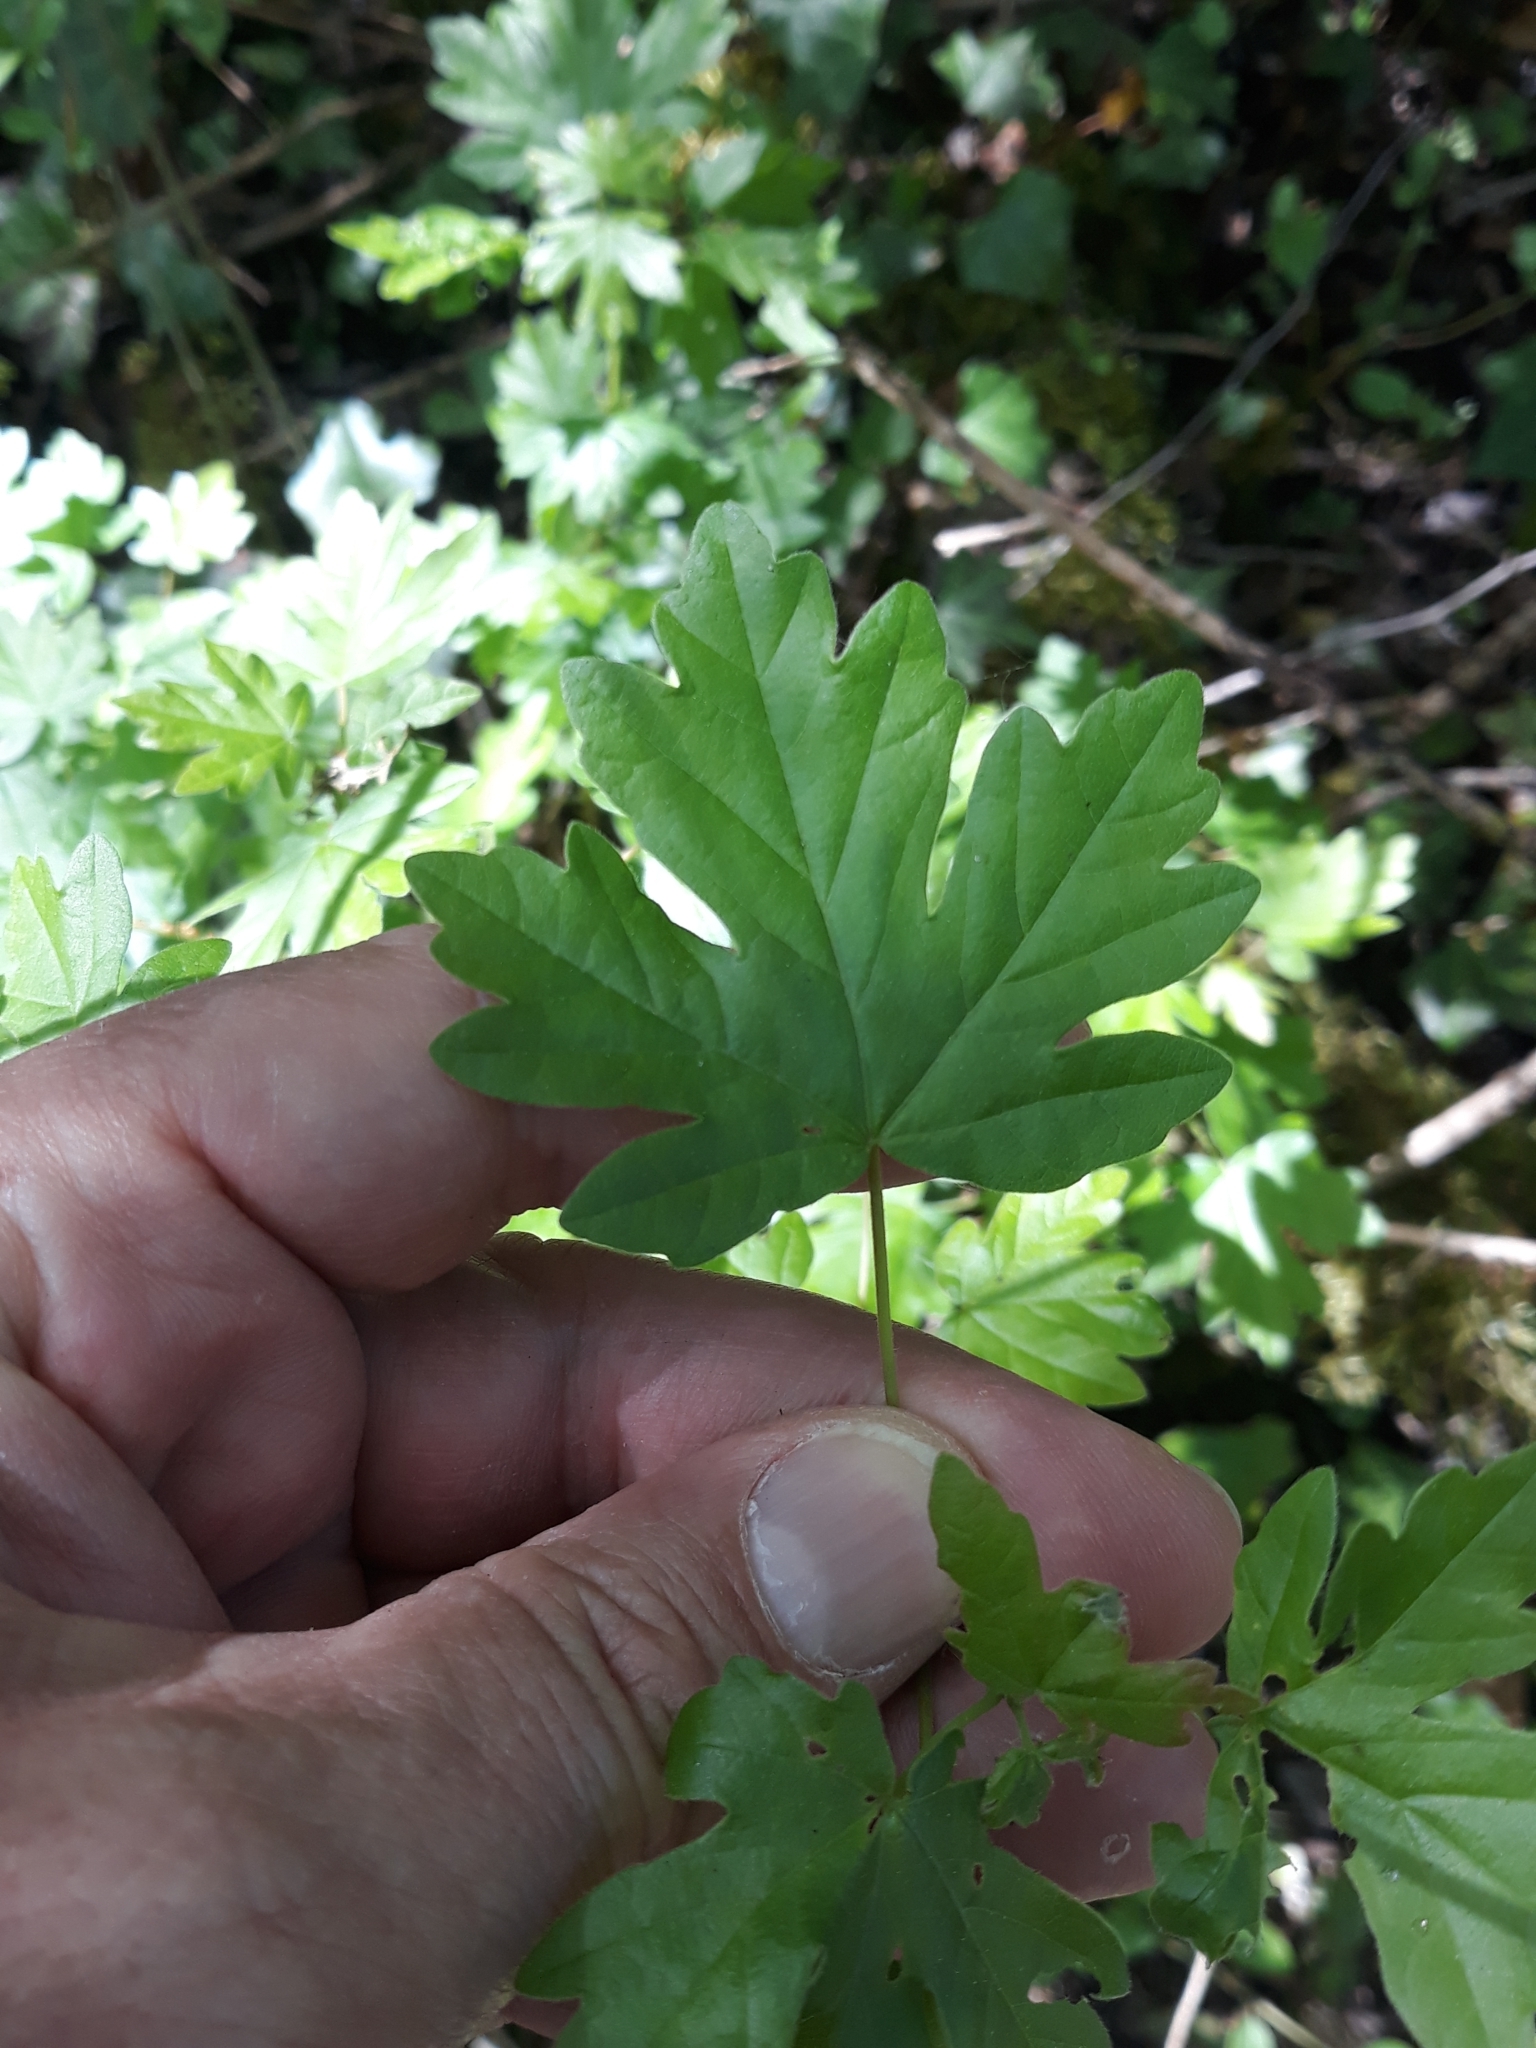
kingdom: Plantae
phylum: Tracheophyta
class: Magnoliopsida
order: Sapindales
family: Sapindaceae
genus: Acer
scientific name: Acer campestre
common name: Field maple
